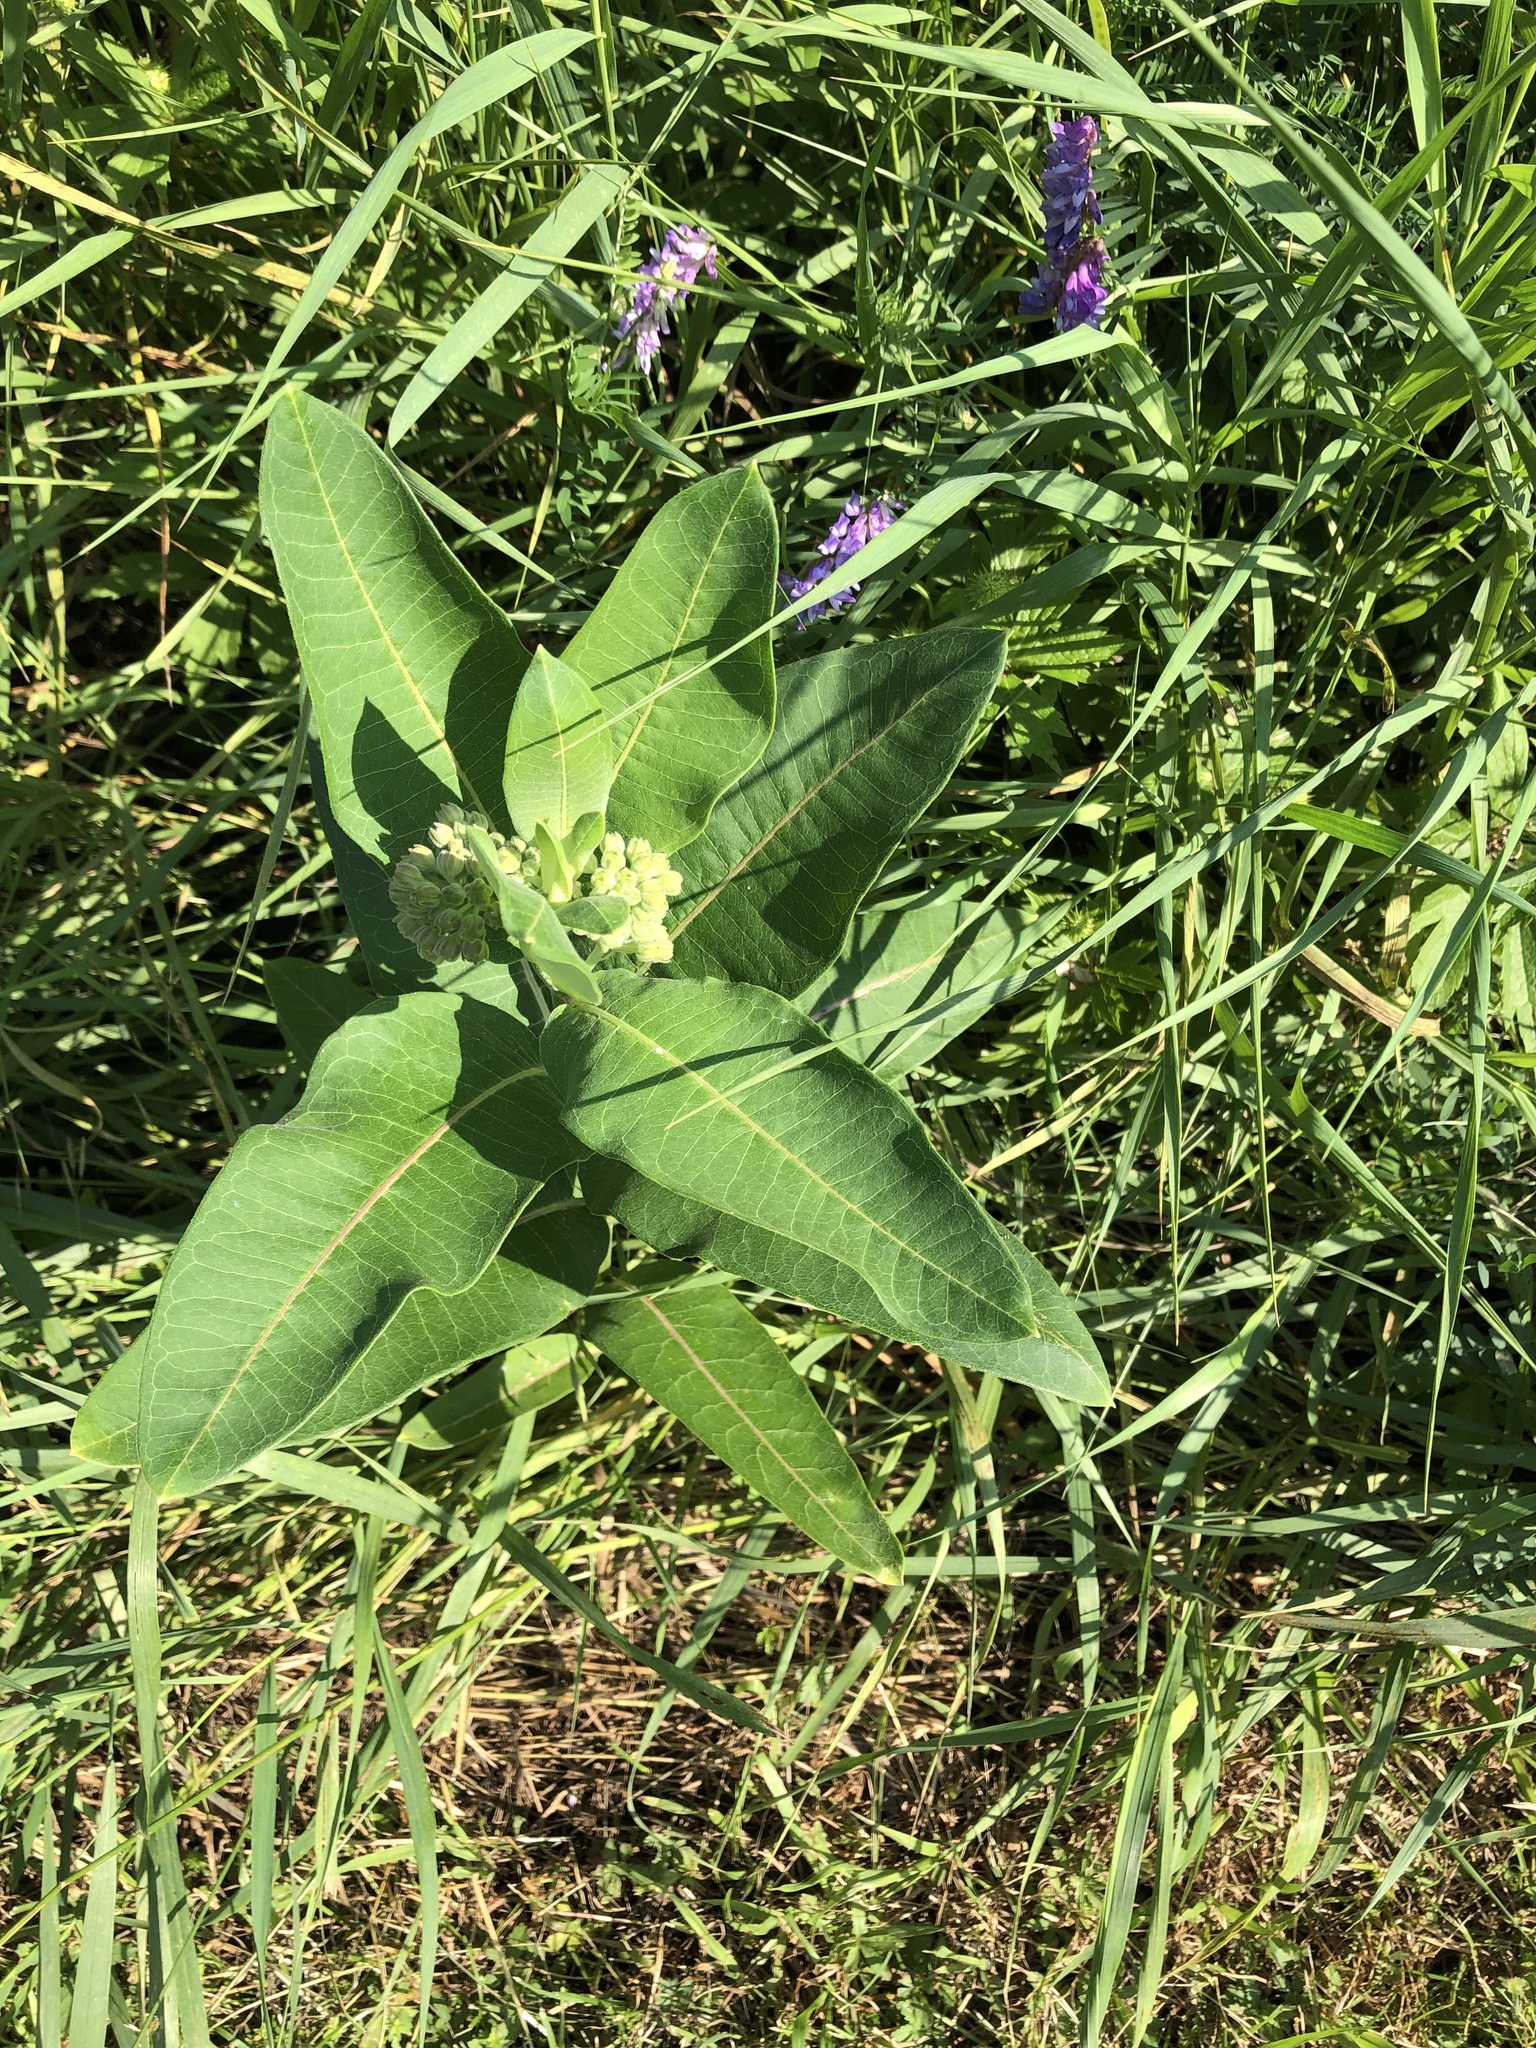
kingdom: Plantae
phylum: Tracheophyta
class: Magnoliopsida
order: Gentianales
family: Apocynaceae
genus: Asclepias
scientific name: Asclepias syriaca
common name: Common milkweed
